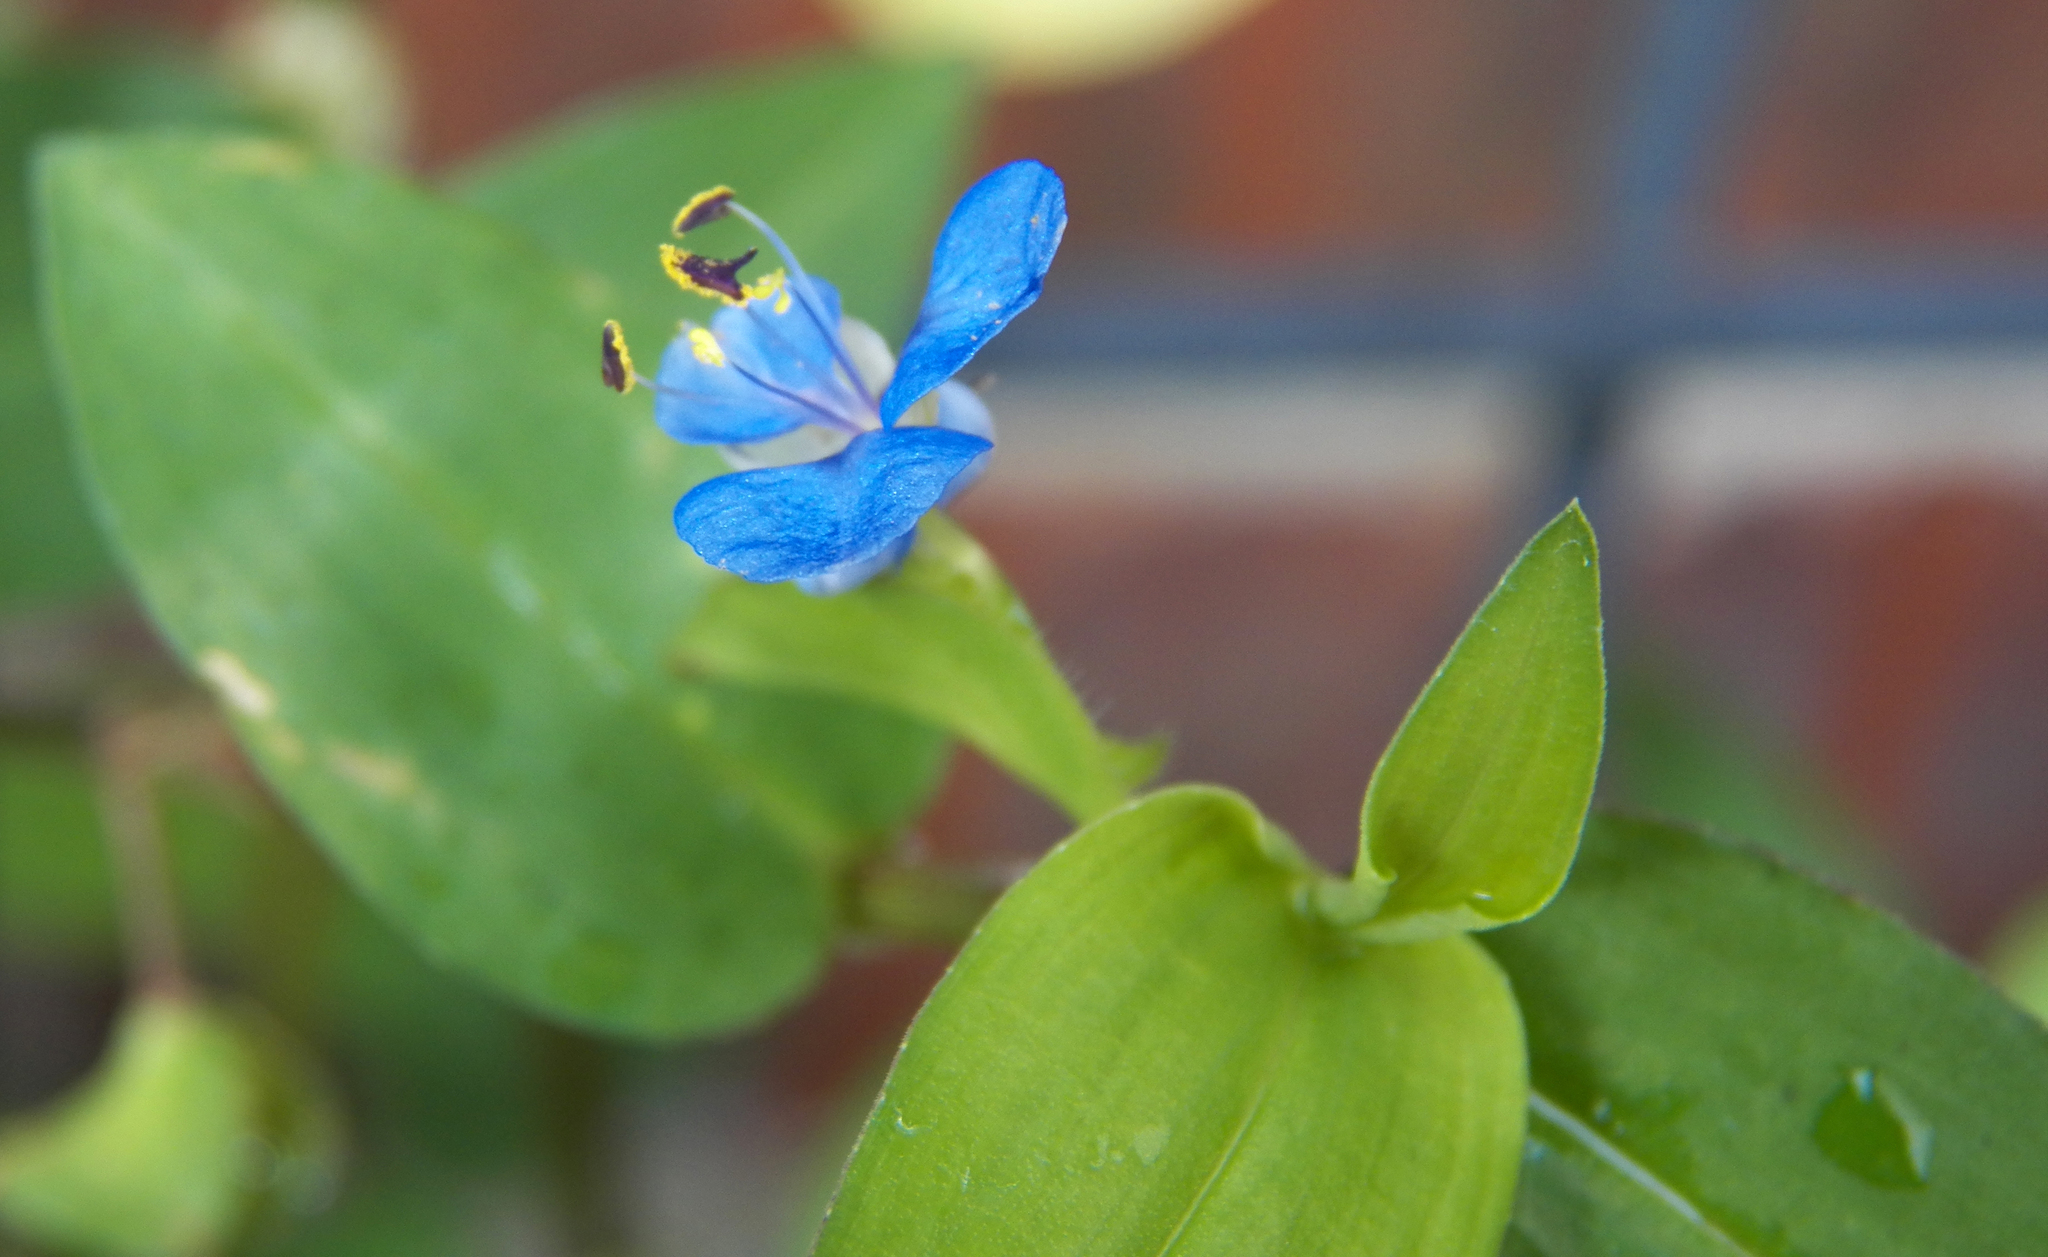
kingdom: Plantae
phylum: Tracheophyta
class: Liliopsida
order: Commelinales
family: Commelinaceae
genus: Commelina
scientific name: Commelina diffusa
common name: Climbing dayflower
